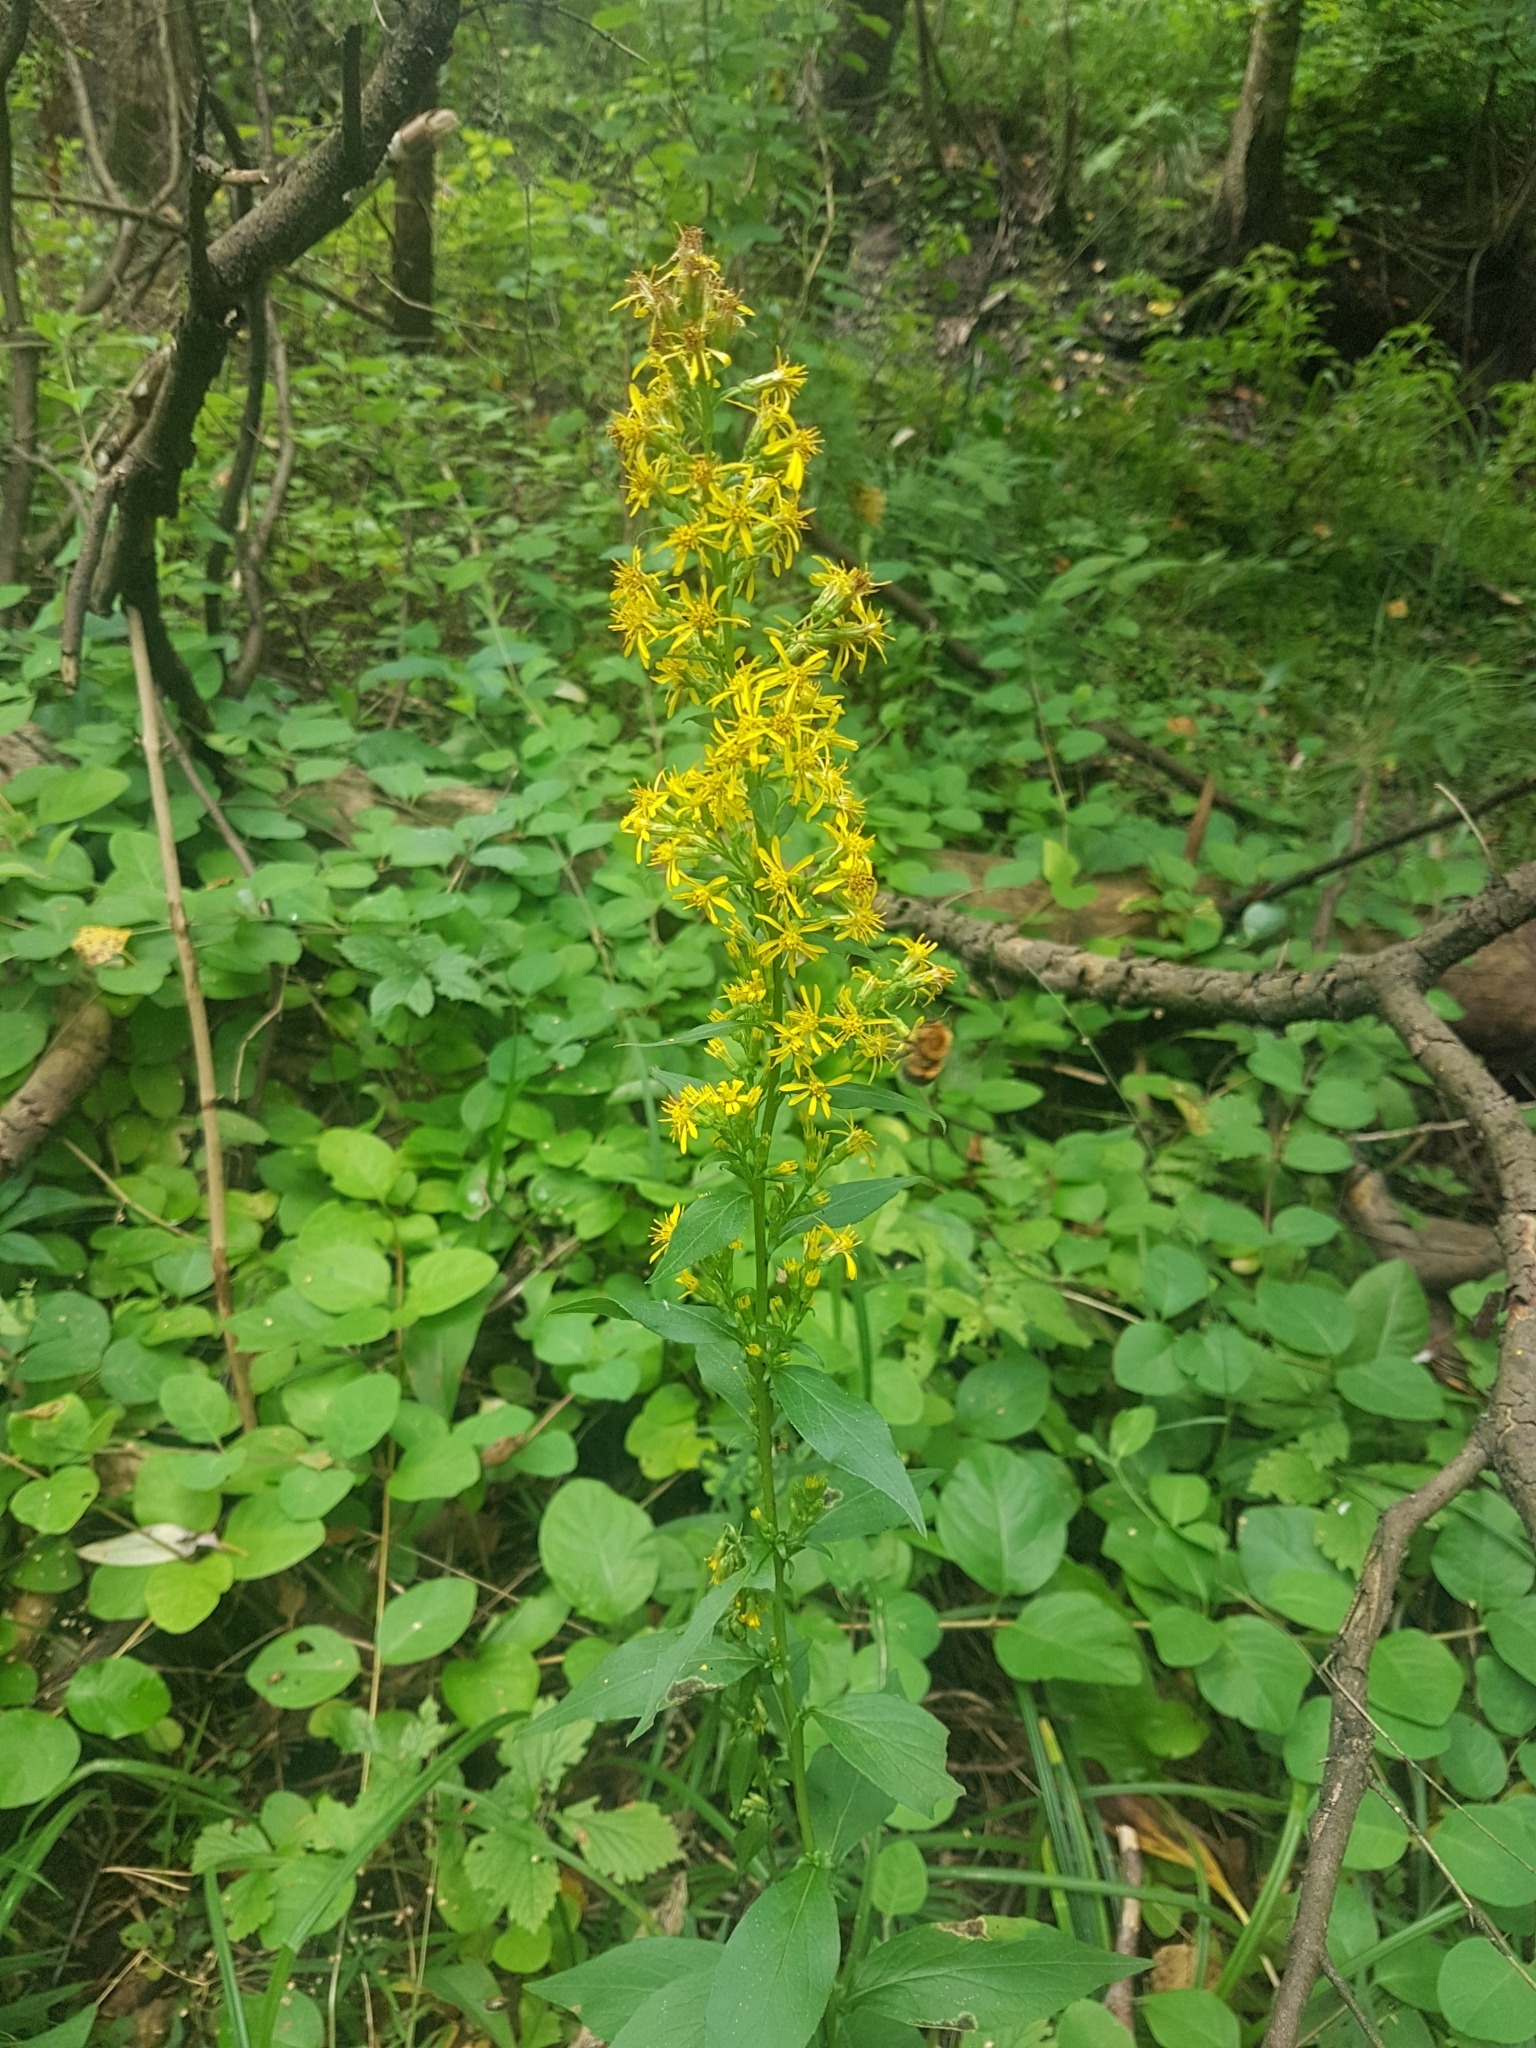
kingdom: Plantae
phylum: Tracheophyta
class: Magnoliopsida
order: Asterales
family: Asteraceae
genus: Solidago
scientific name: Solidago virgaurea
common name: Goldenrod
